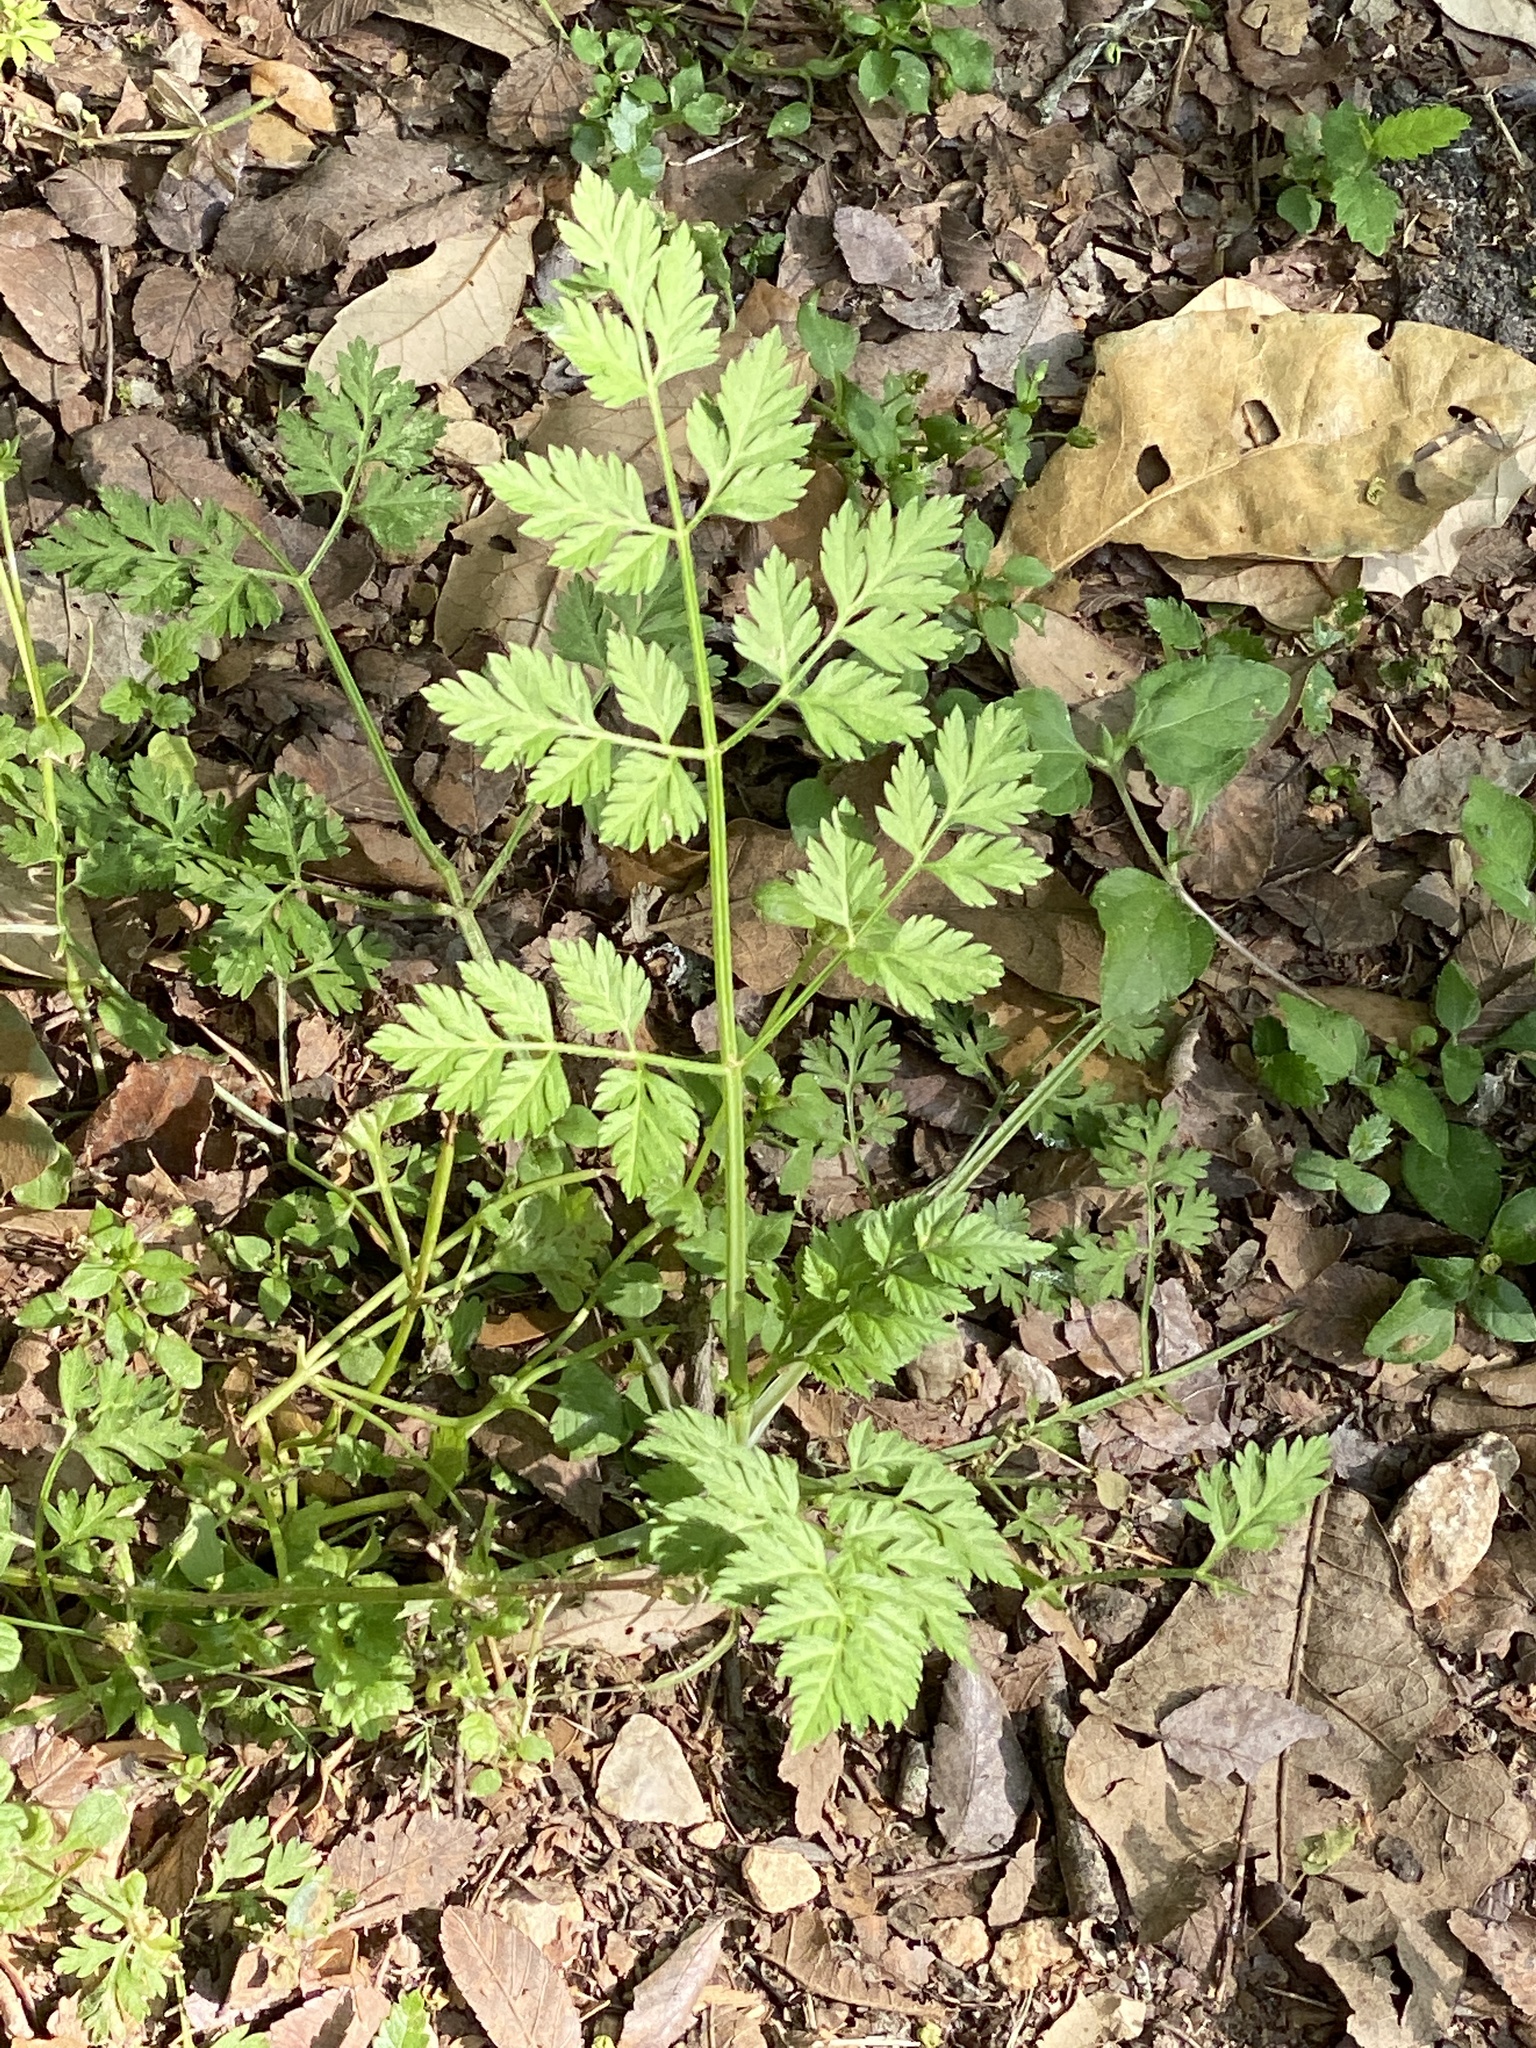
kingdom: Plantae
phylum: Tracheophyta
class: Magnoliopsida
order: Apiales
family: Apiaceae
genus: Torilis
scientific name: Torilis arvensis
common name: Spreading hedge-parsley
